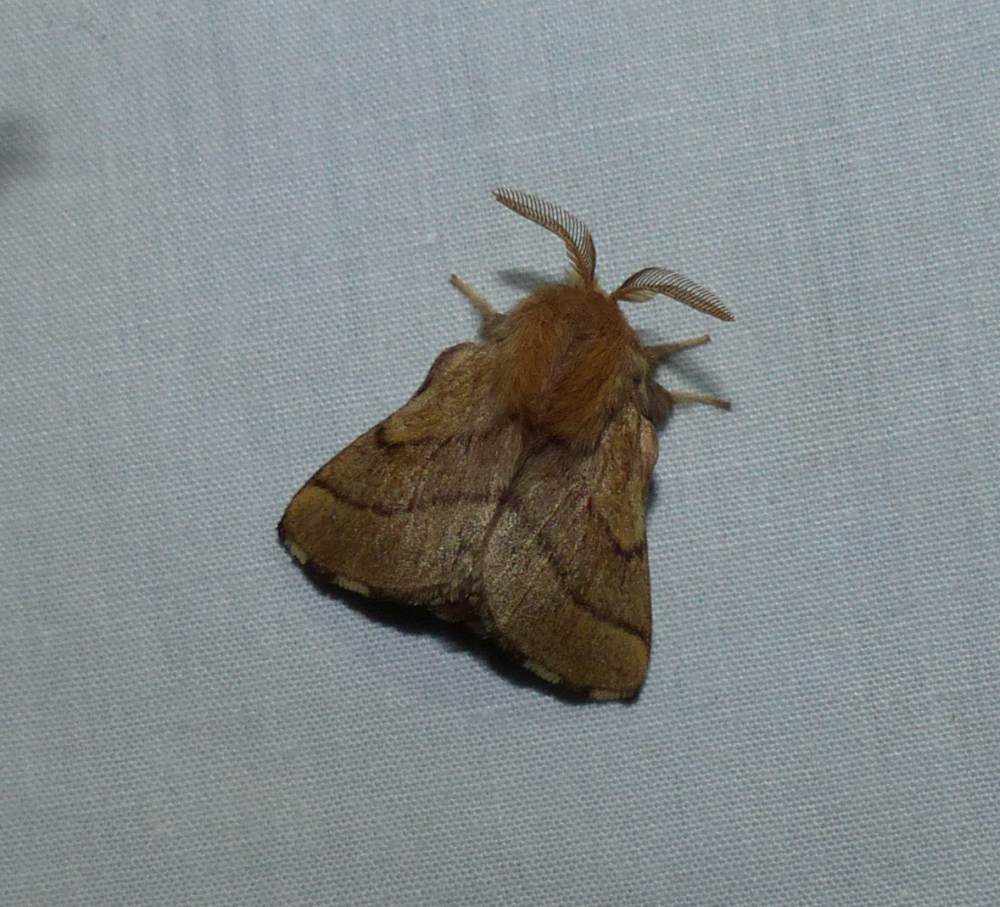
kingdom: Animalia
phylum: Arthropoda
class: Insecta
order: Lepidoptera
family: Lasiocampidae
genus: Malacosoma
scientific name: Malacosoma disstria
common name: Forest tent caterpillar
